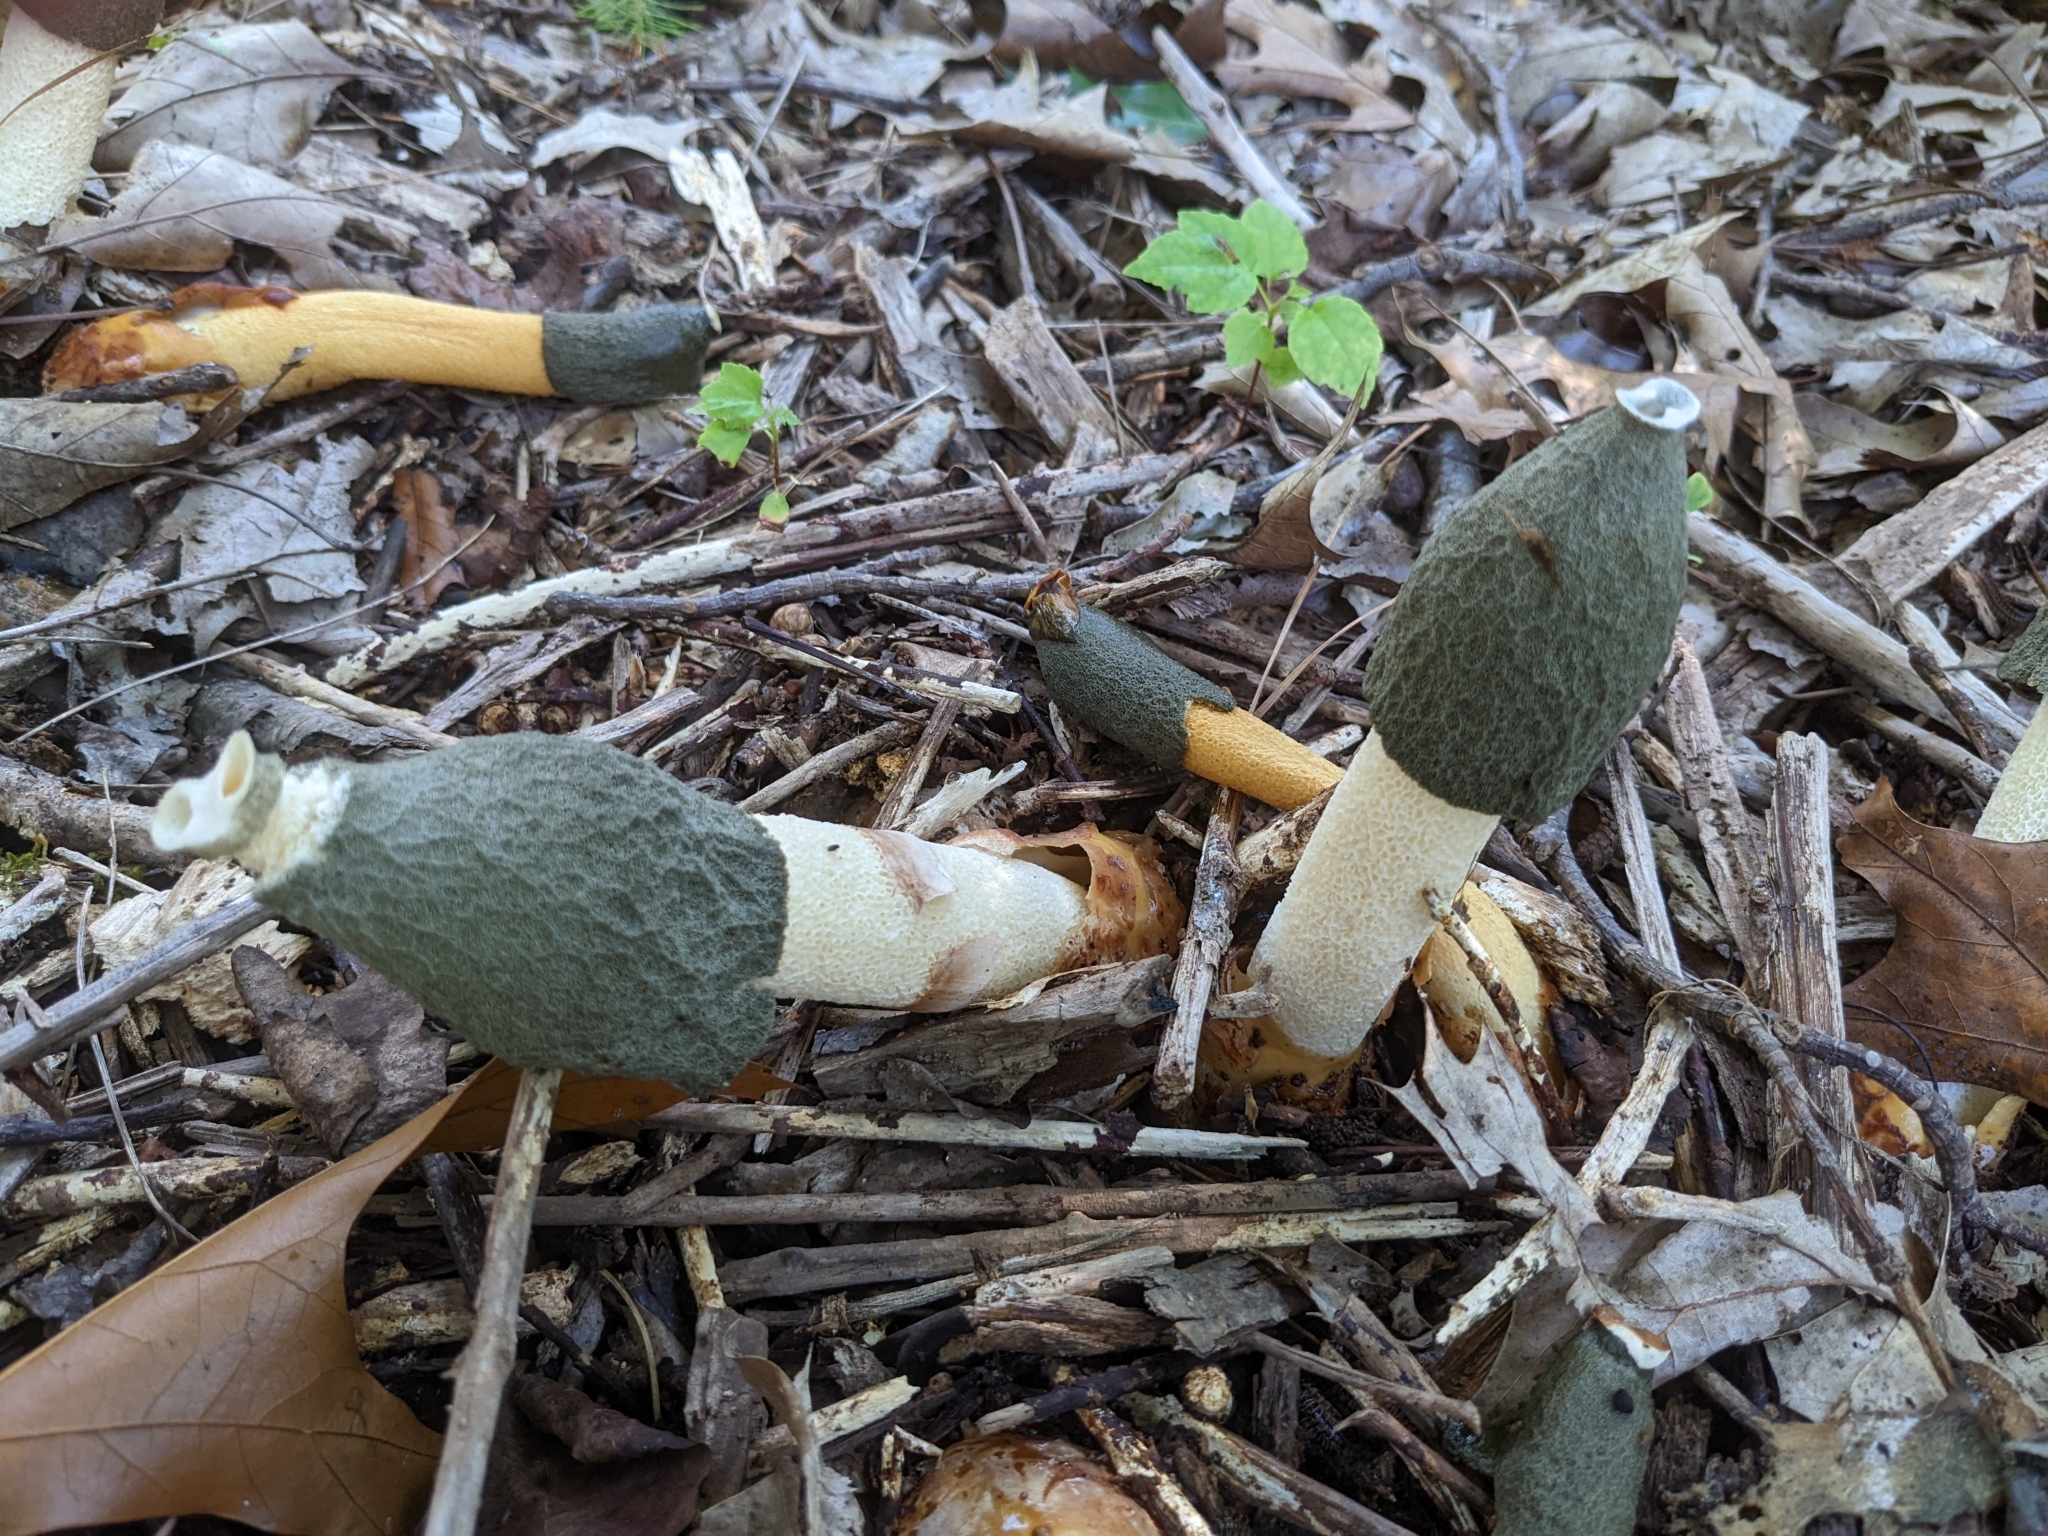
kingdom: Fungi
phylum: Basidiomycota
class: Agaricomycetes
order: Phallales
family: Phallaceae
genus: Phallus
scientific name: Phallus ravenelii
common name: Ravenel's stinkhorn
